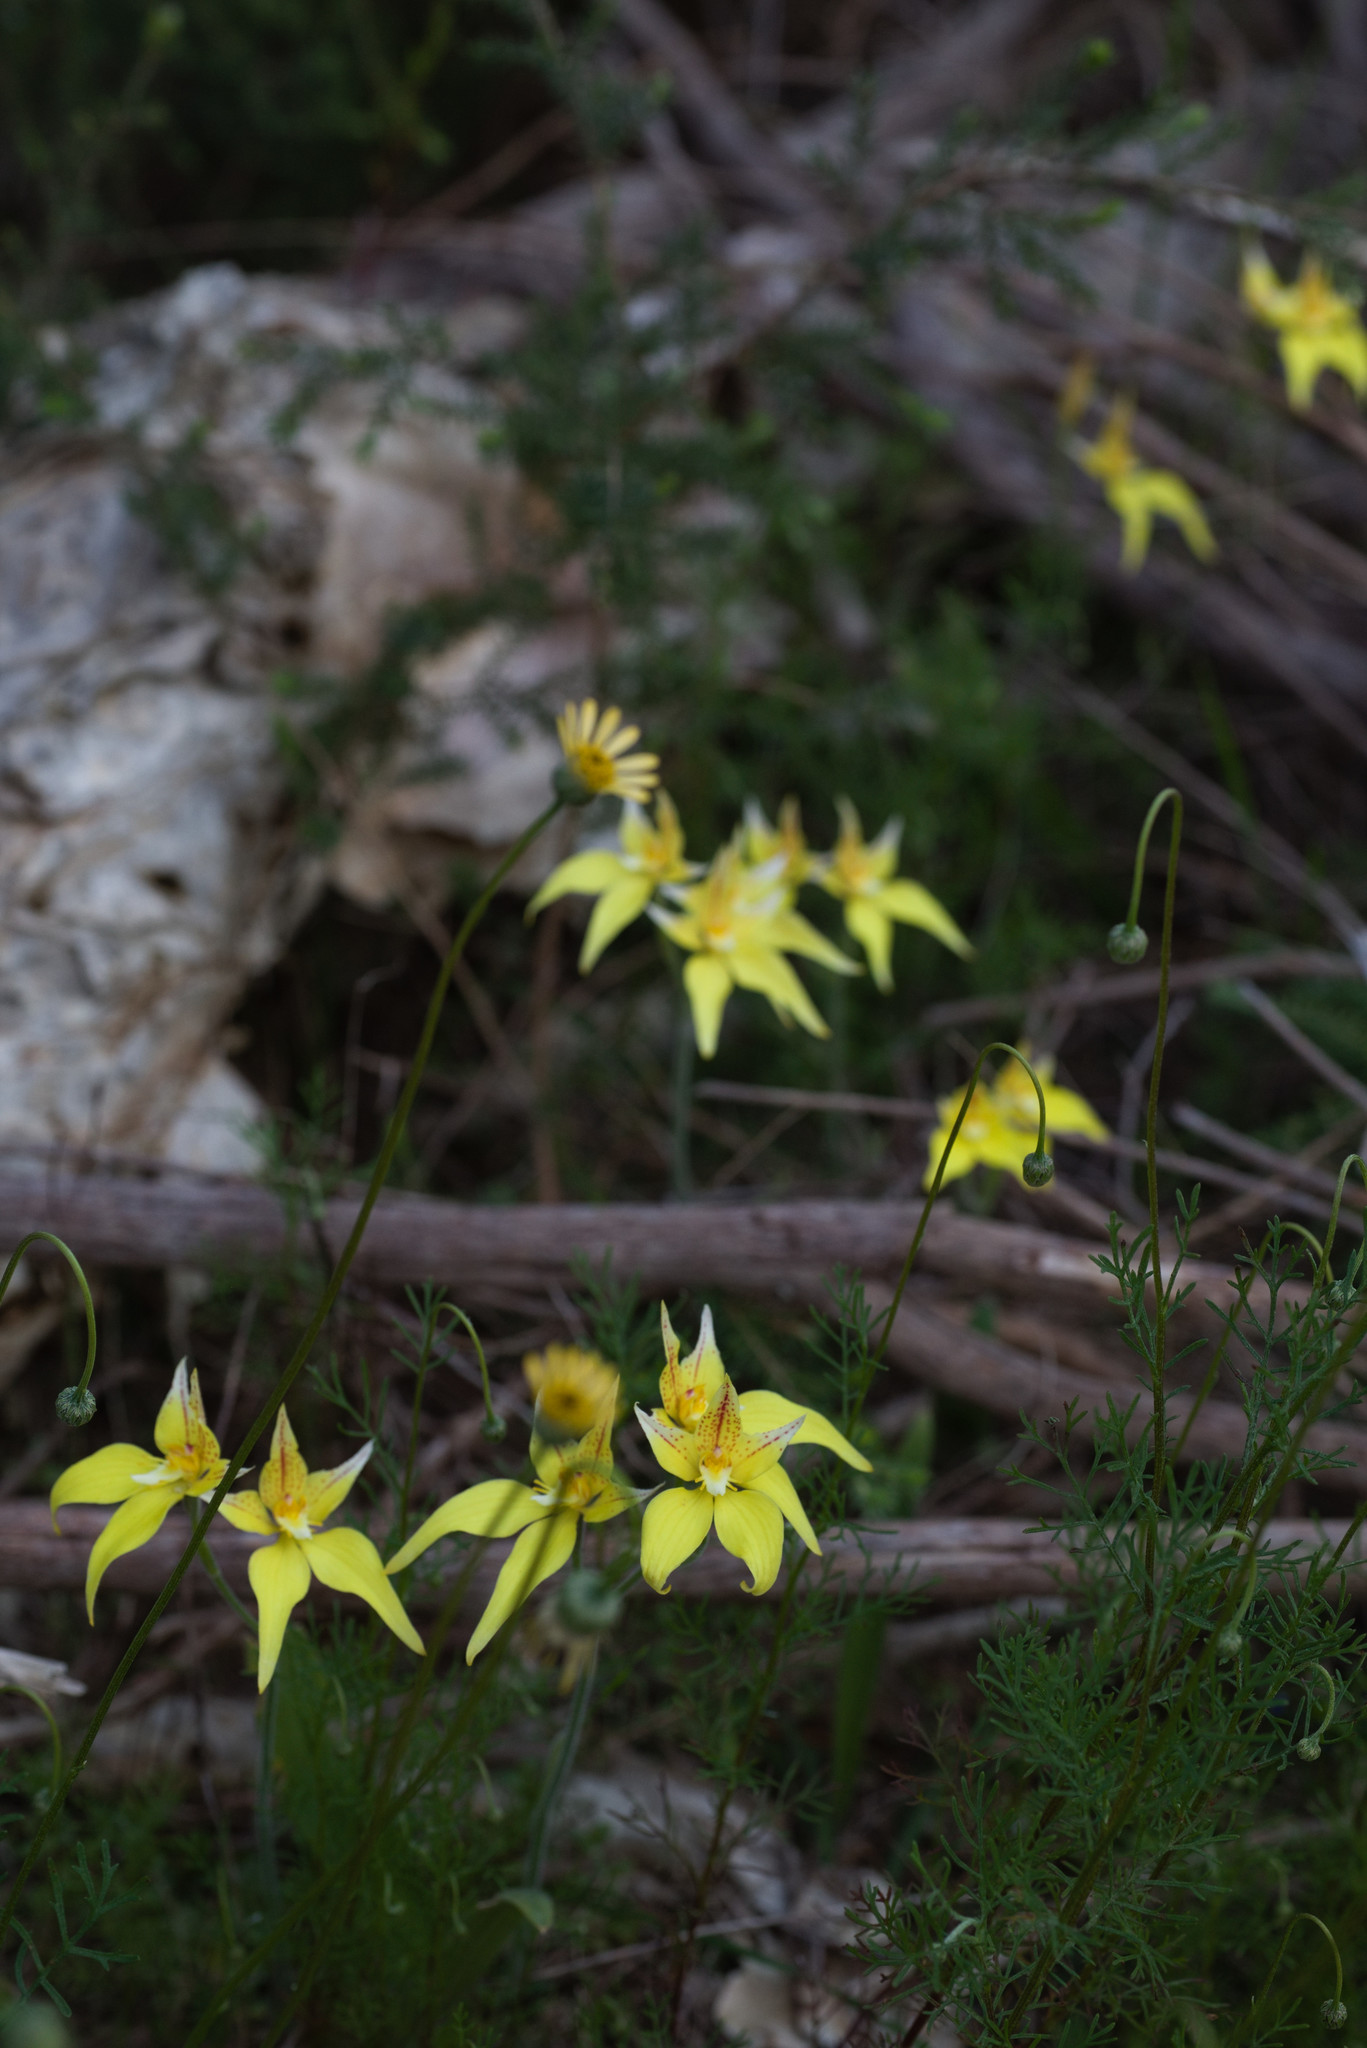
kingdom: Plantae
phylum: Tracheophyta
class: Liliopsida
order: Asparagales
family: Orchidaceae
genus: Caladenia
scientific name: Caladenia flava
